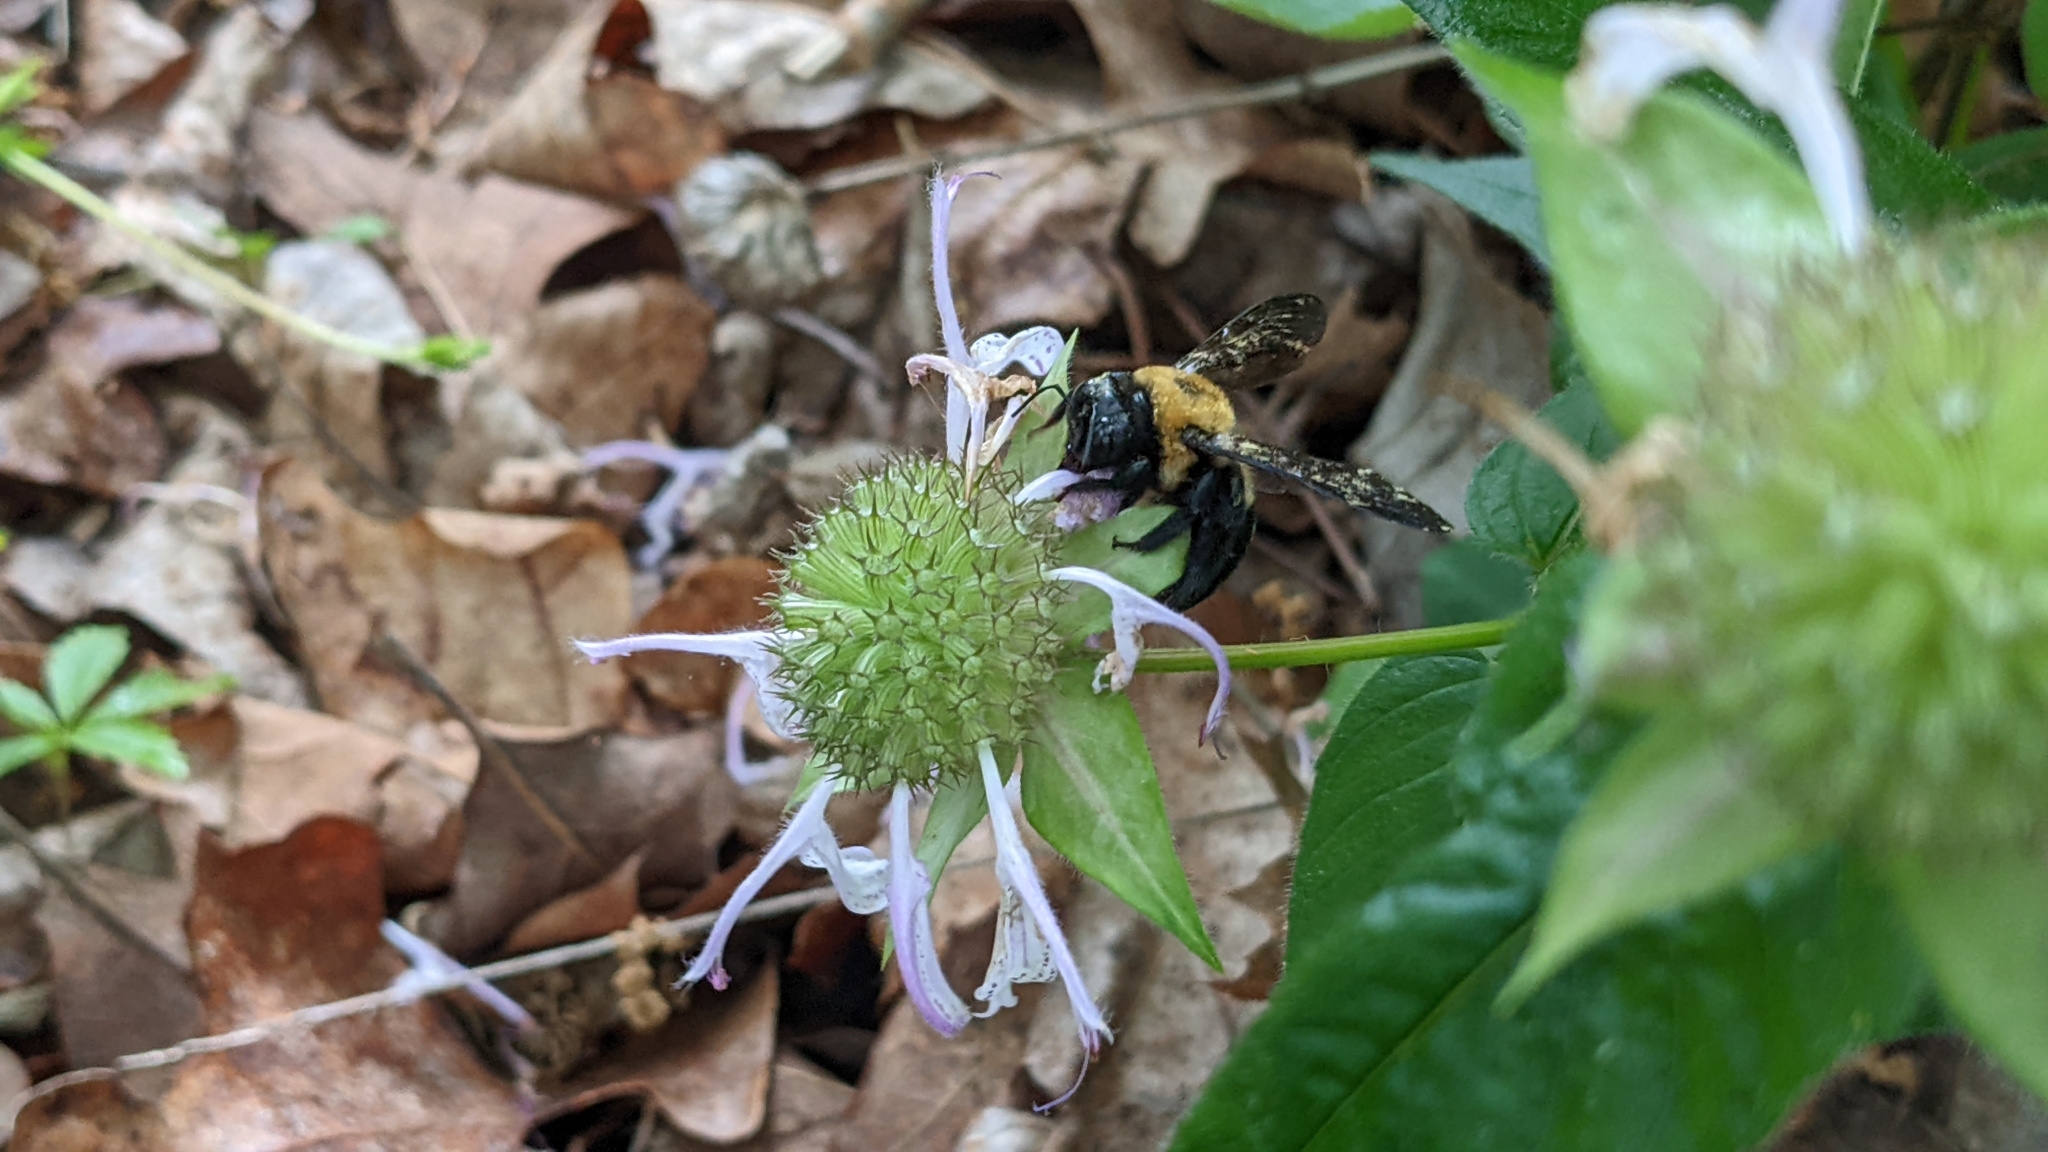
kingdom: Animalia
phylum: Arthropoda
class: Insecta
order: Hymenoptera
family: Apidae
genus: Xylocopa
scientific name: Xylocopa virginica
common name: Carpenter bee
